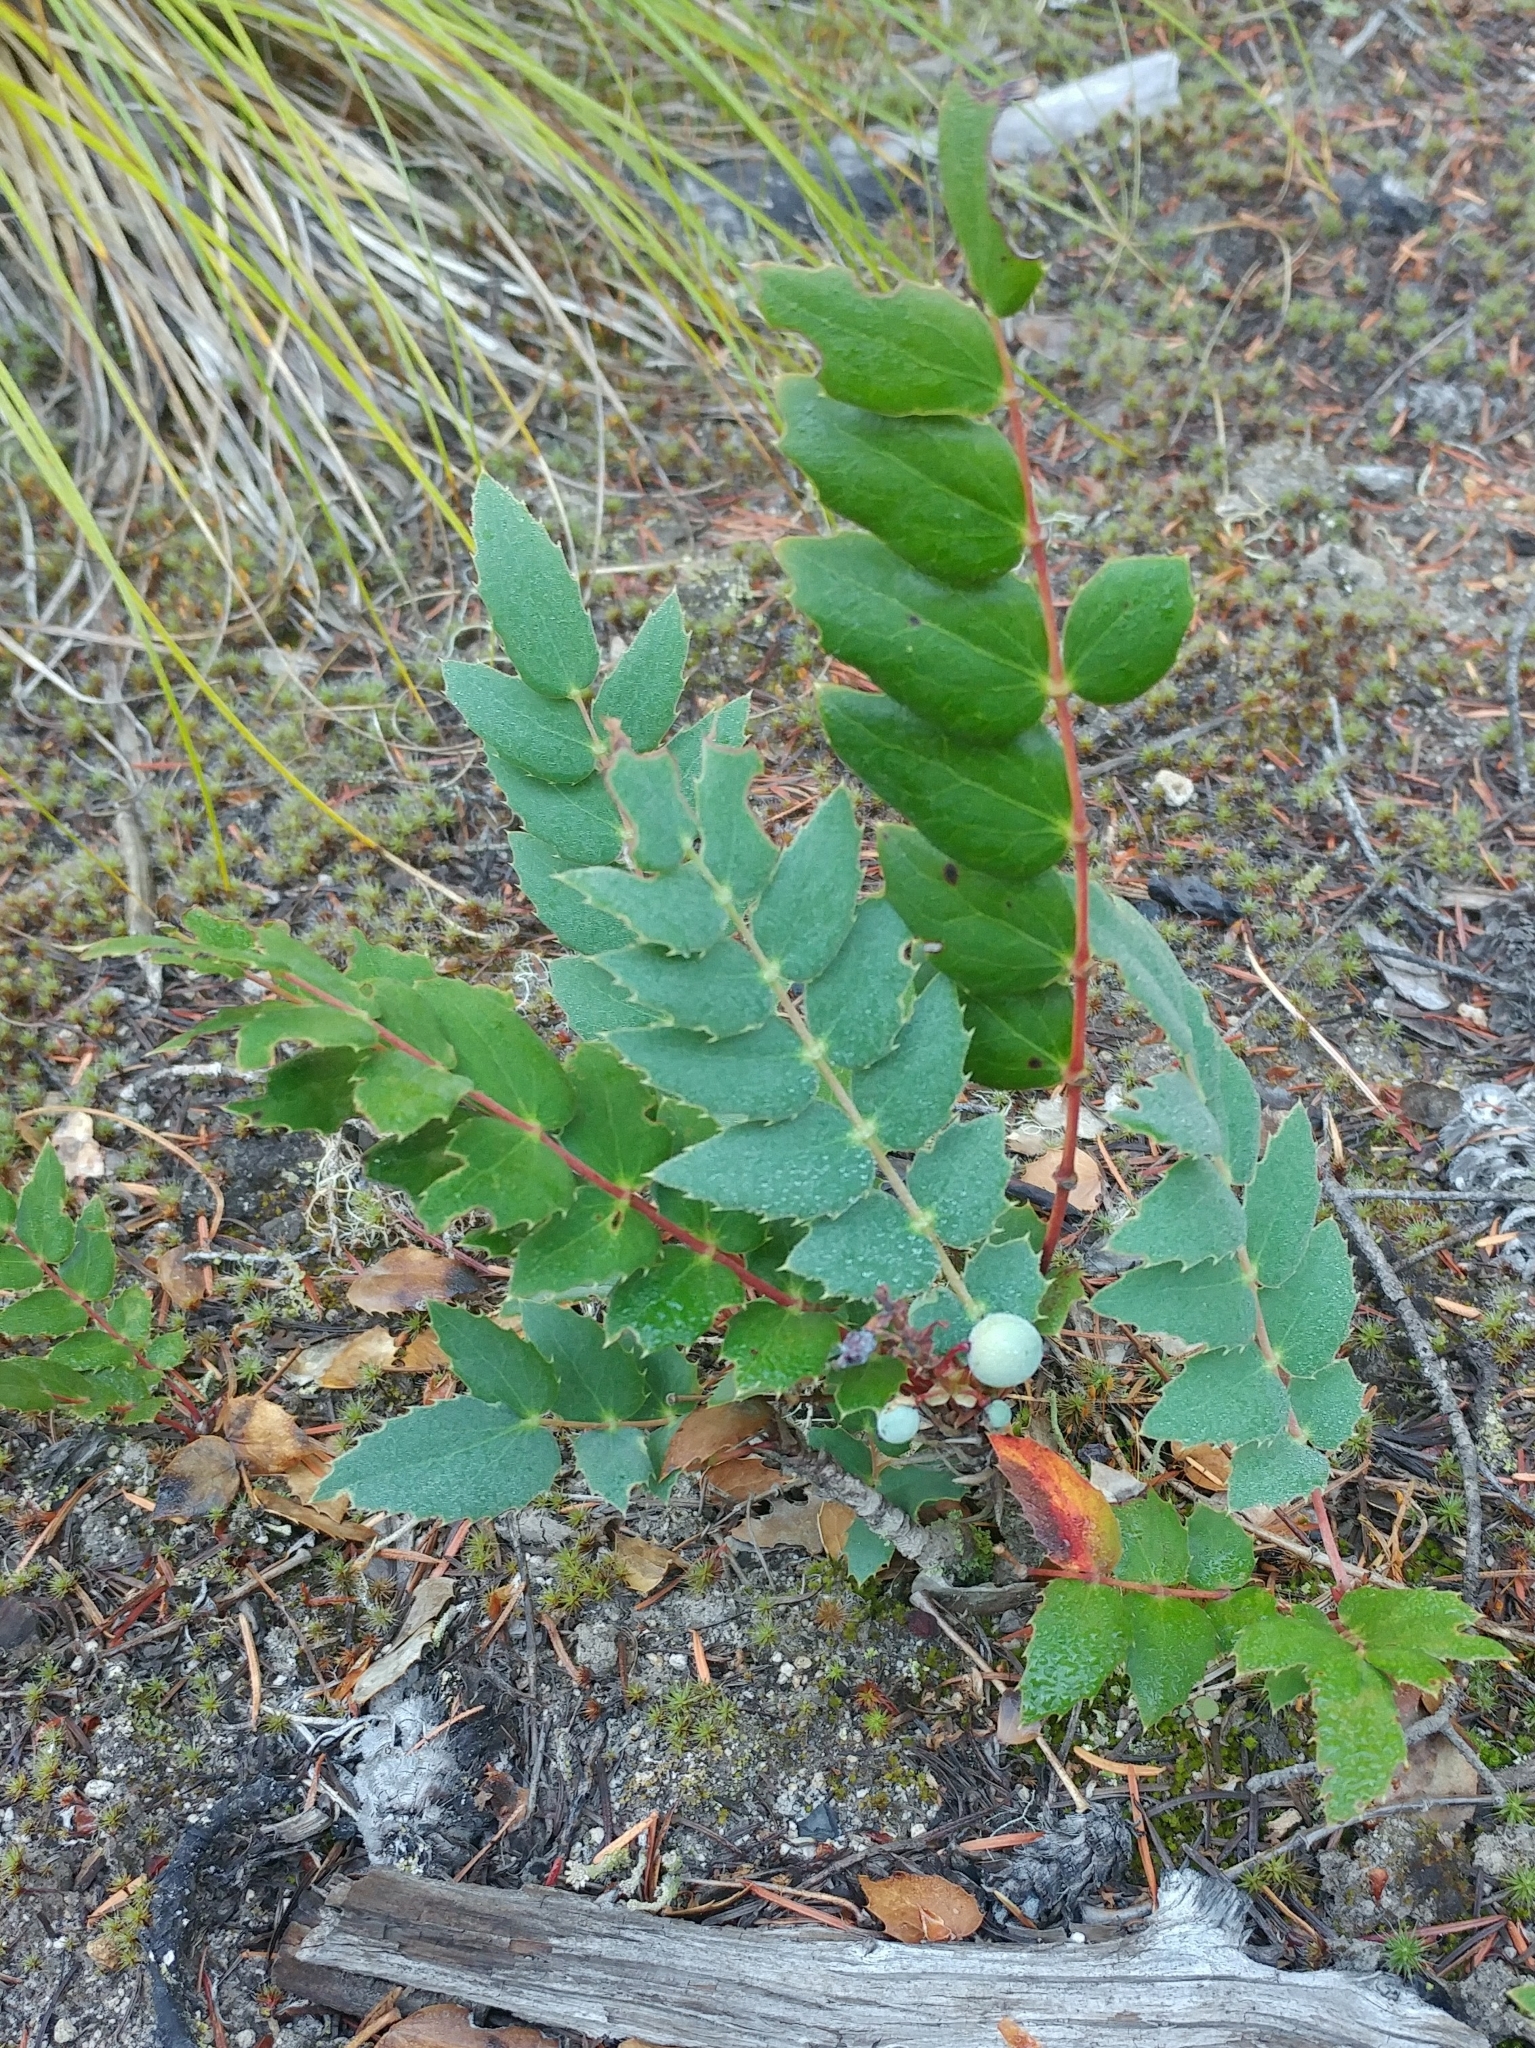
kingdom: Plantae
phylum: Tracheophyta
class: Magnoliopsida
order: Ranunculales
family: Berberidaceae
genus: Mahonia
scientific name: Mahonia nervosa
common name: Cascade oregon-grape
